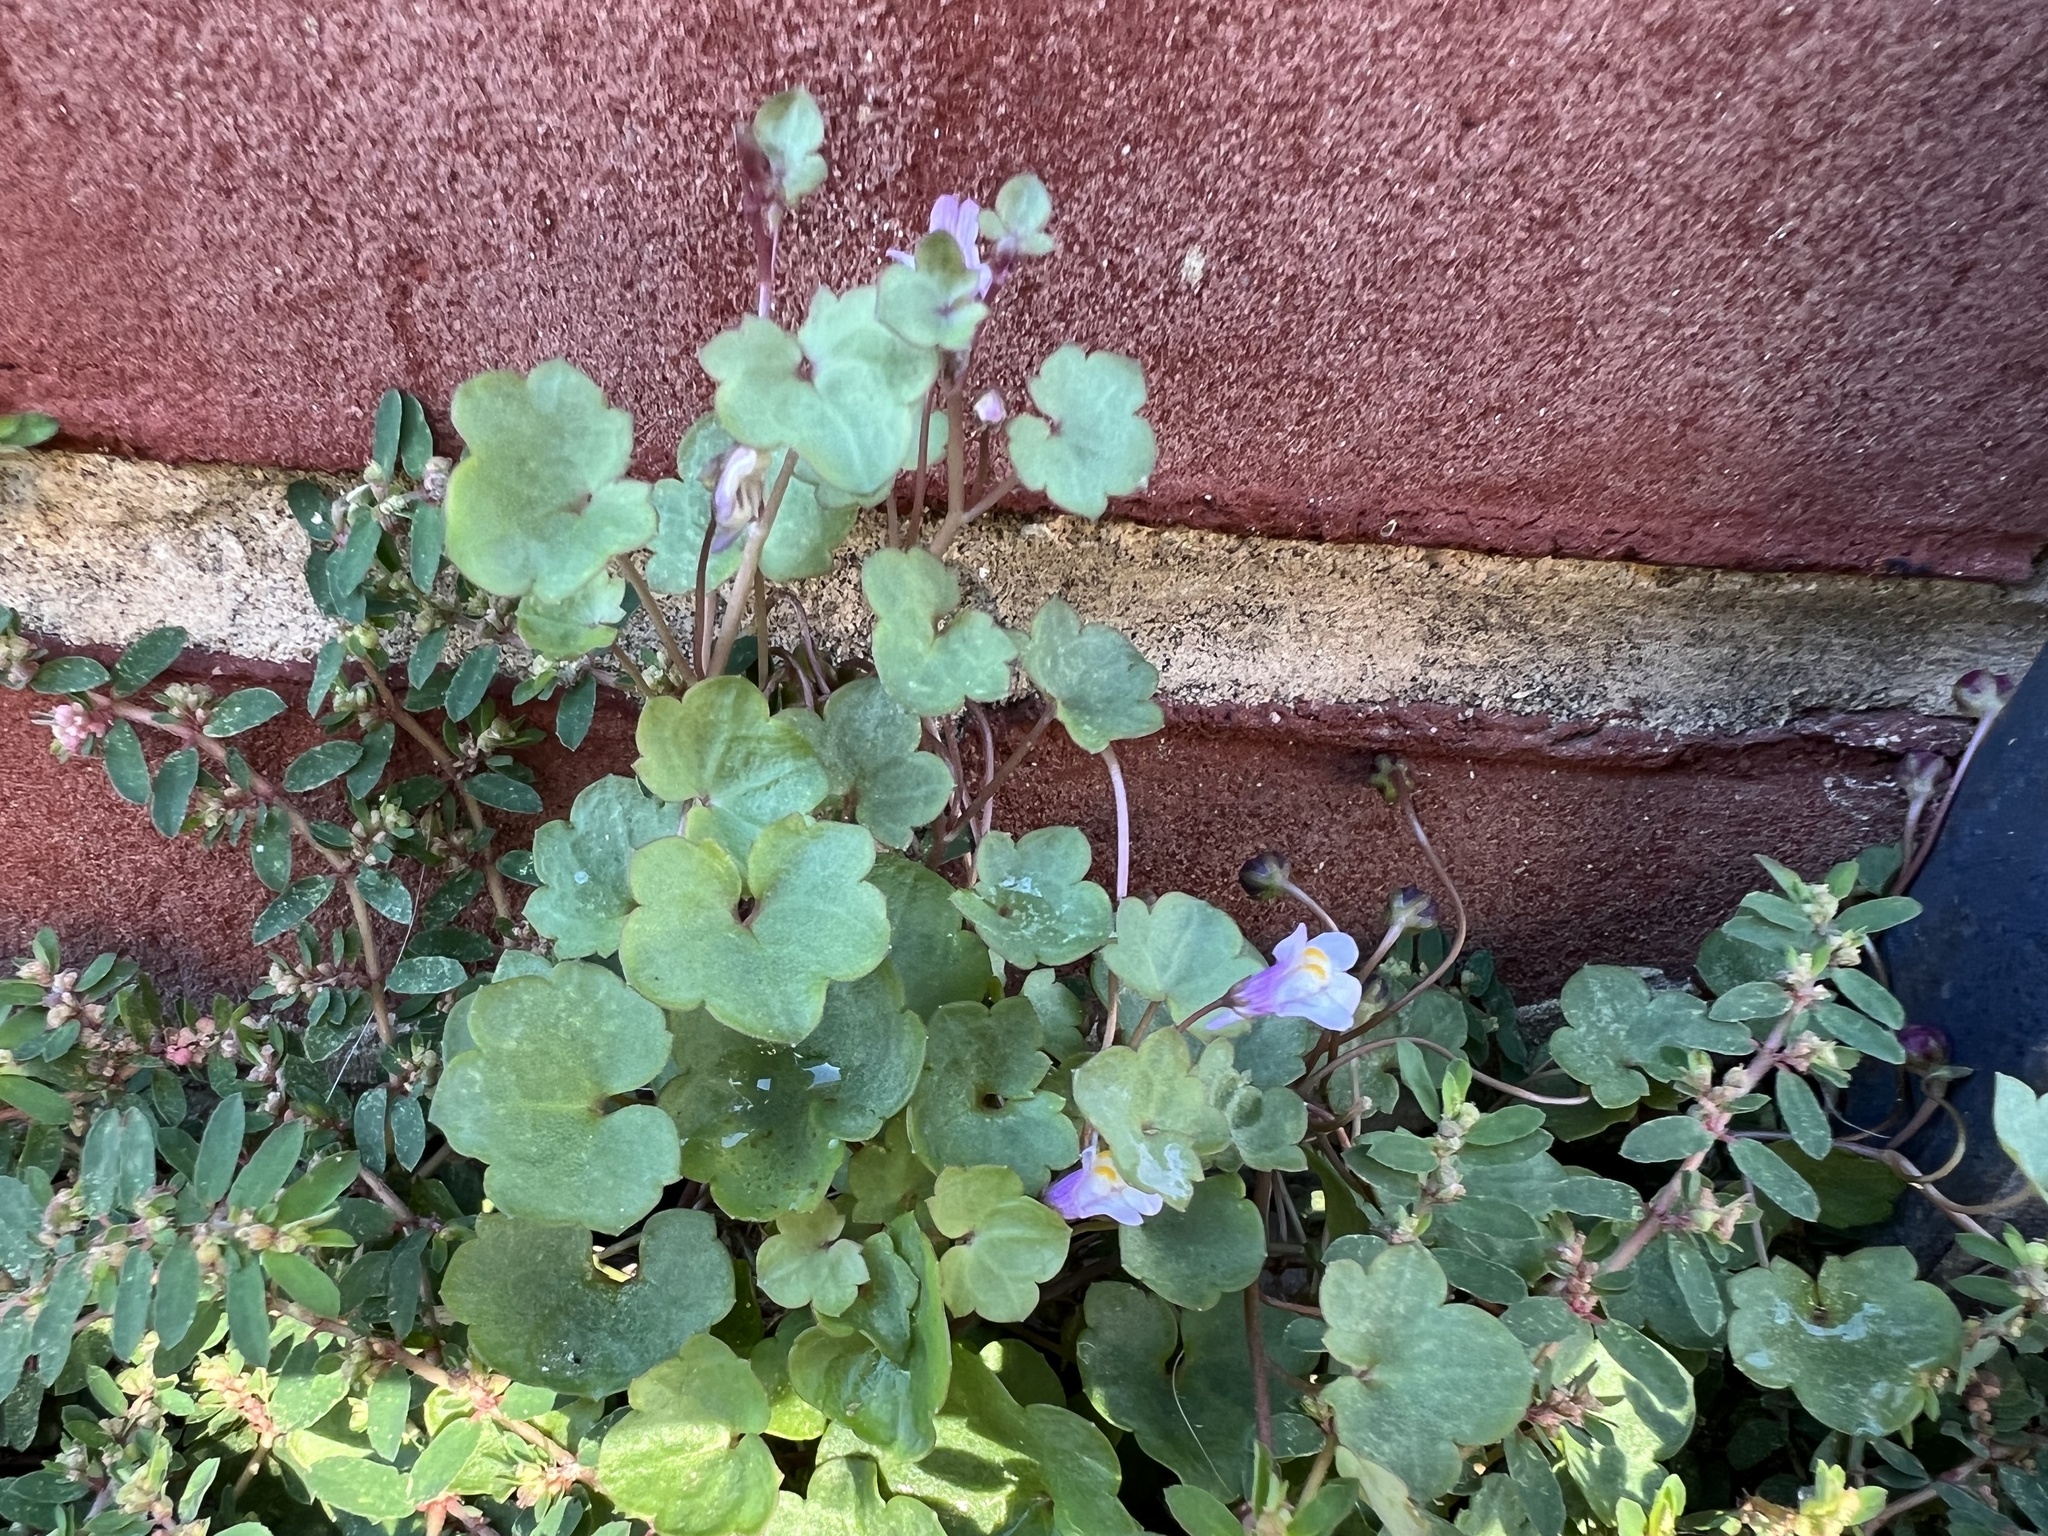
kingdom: Plantae
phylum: Tracheophyta
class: Magnoliopsida
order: Lamiales
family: Plantaginaceae
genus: Cymbalaria
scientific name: Cymbalaria muralis
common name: Ivy-leaved toadflax
